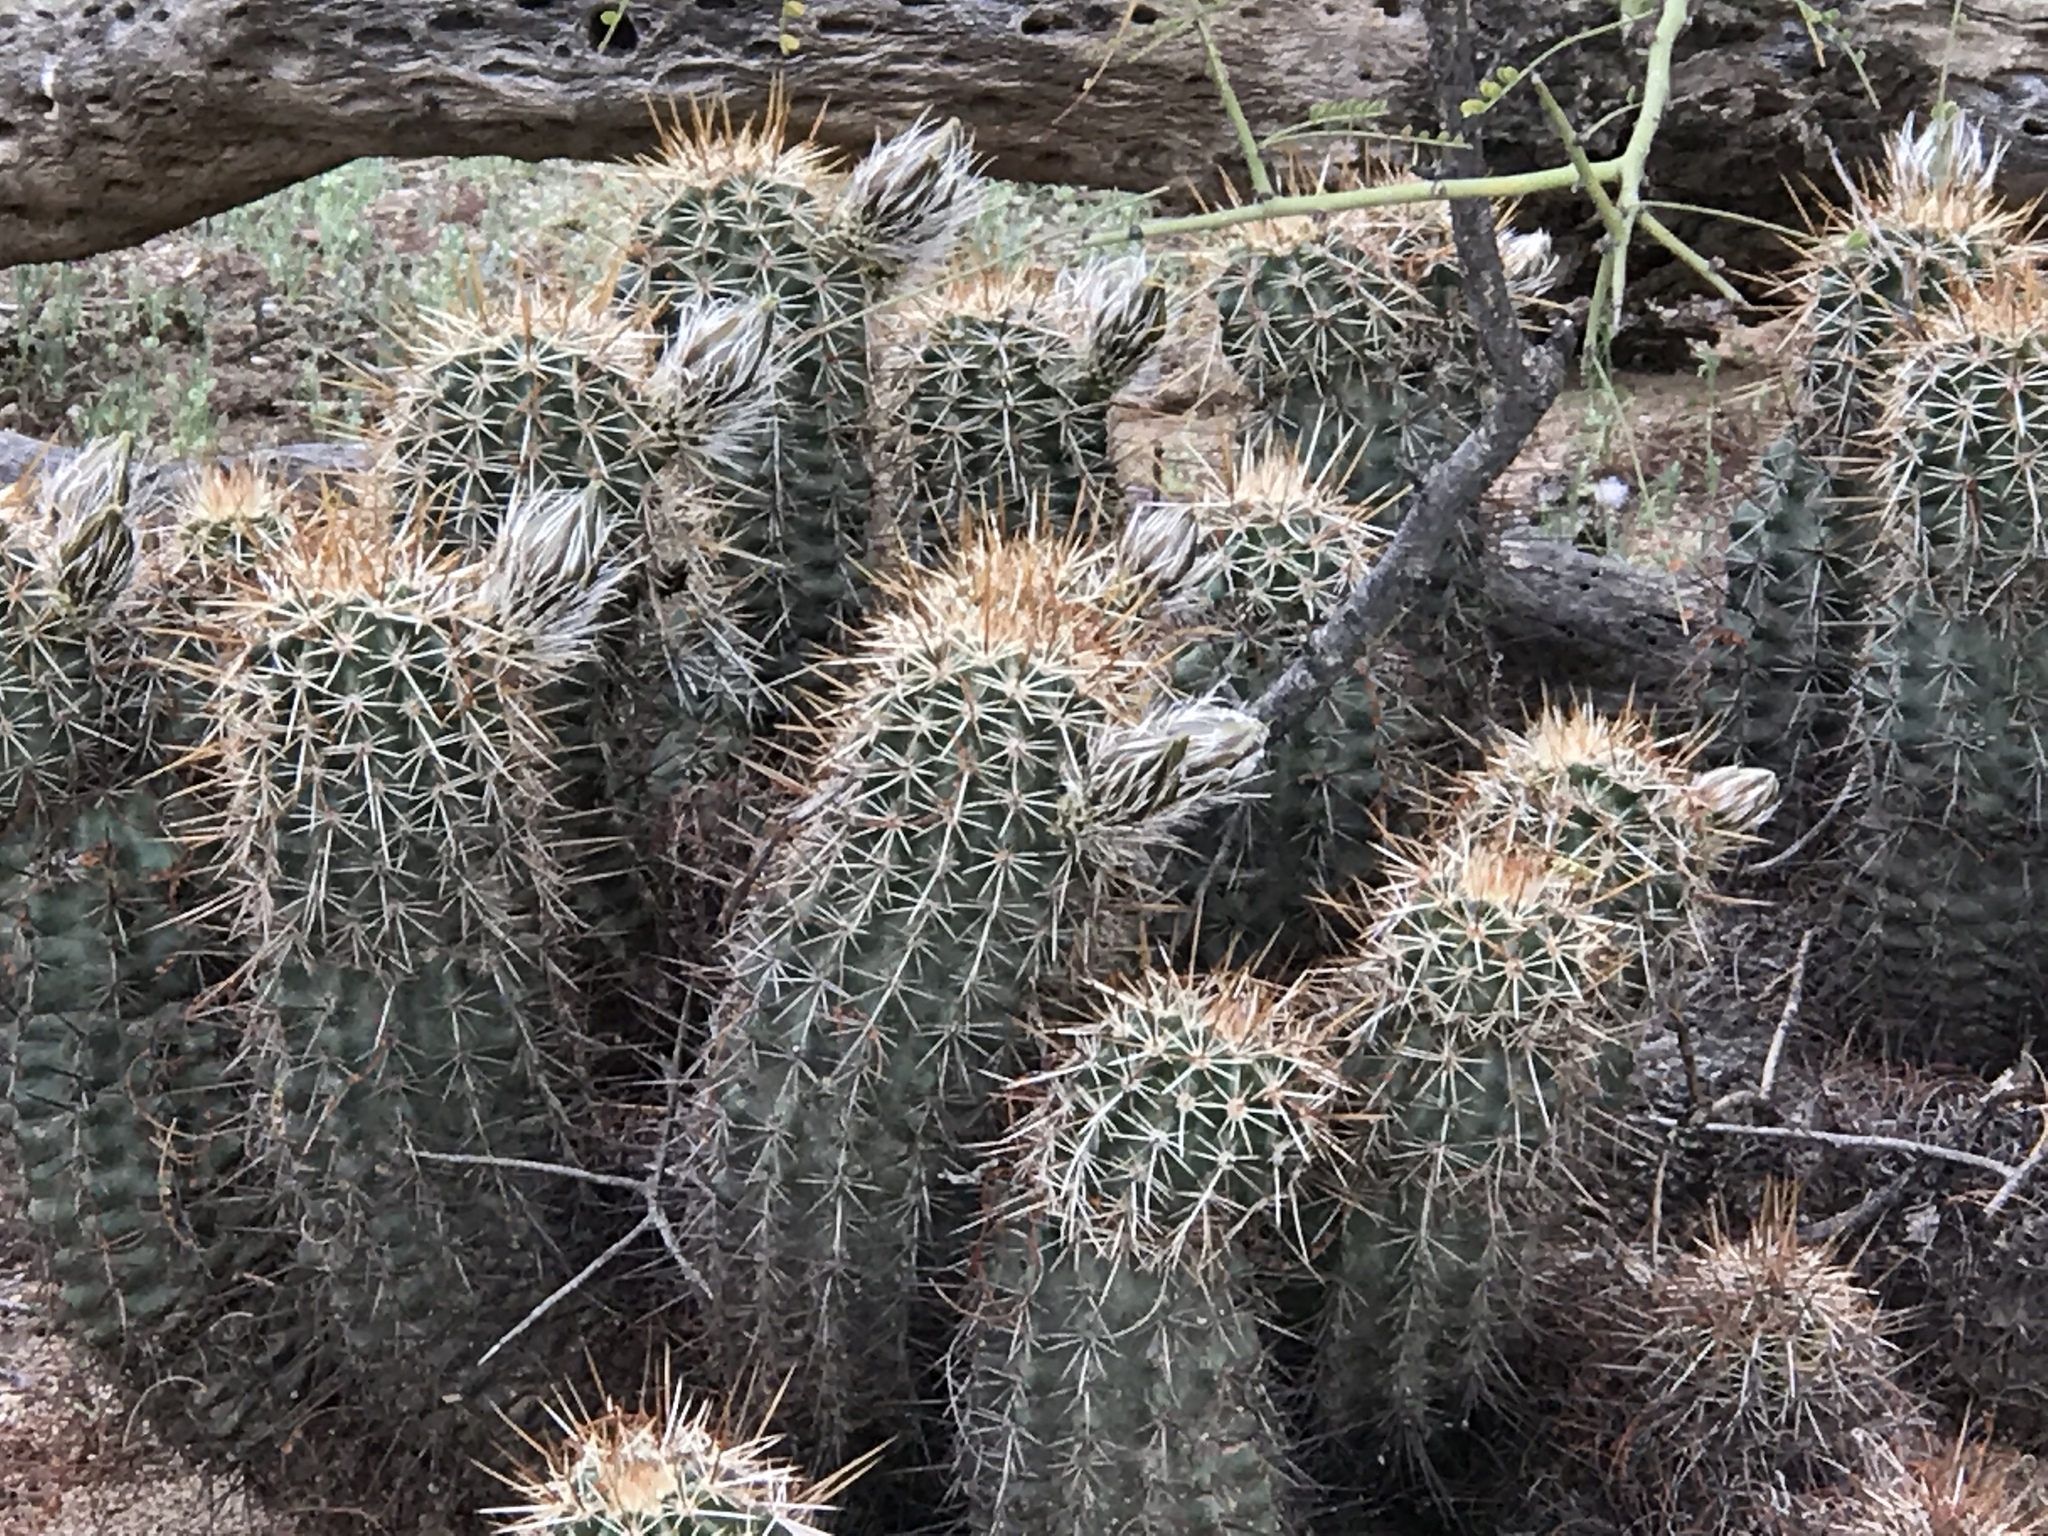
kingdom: Plantae
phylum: Tracheophyta
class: Magnoliopsida
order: Caryophyllales
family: Cactaceae
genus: Echinocereus
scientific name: Echinocereus fasciculatus
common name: Bundle hedgehog
